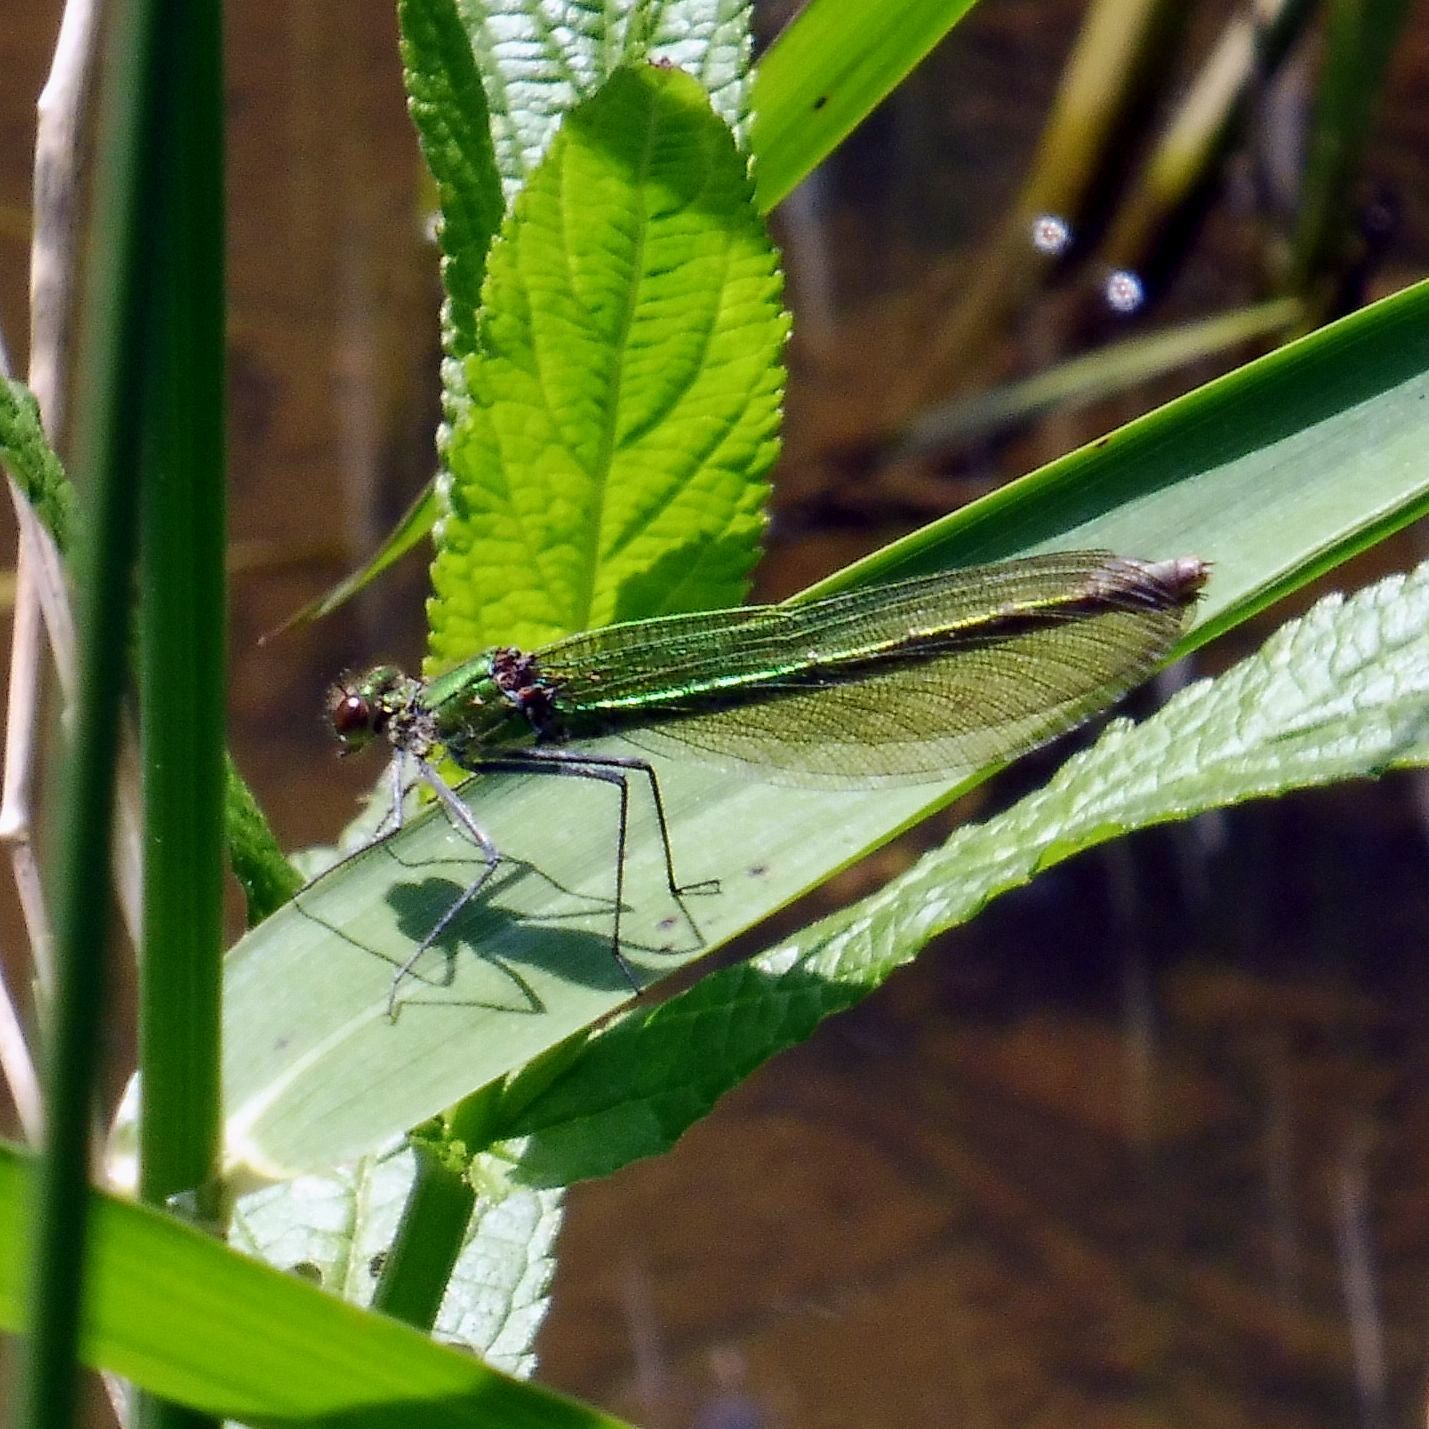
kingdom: Animalia
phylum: Arthropoda
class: Insecta
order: Odonata
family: Calopterygidae
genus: Calopteryx
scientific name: Calopteryx splendens
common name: Banded demoiselle
